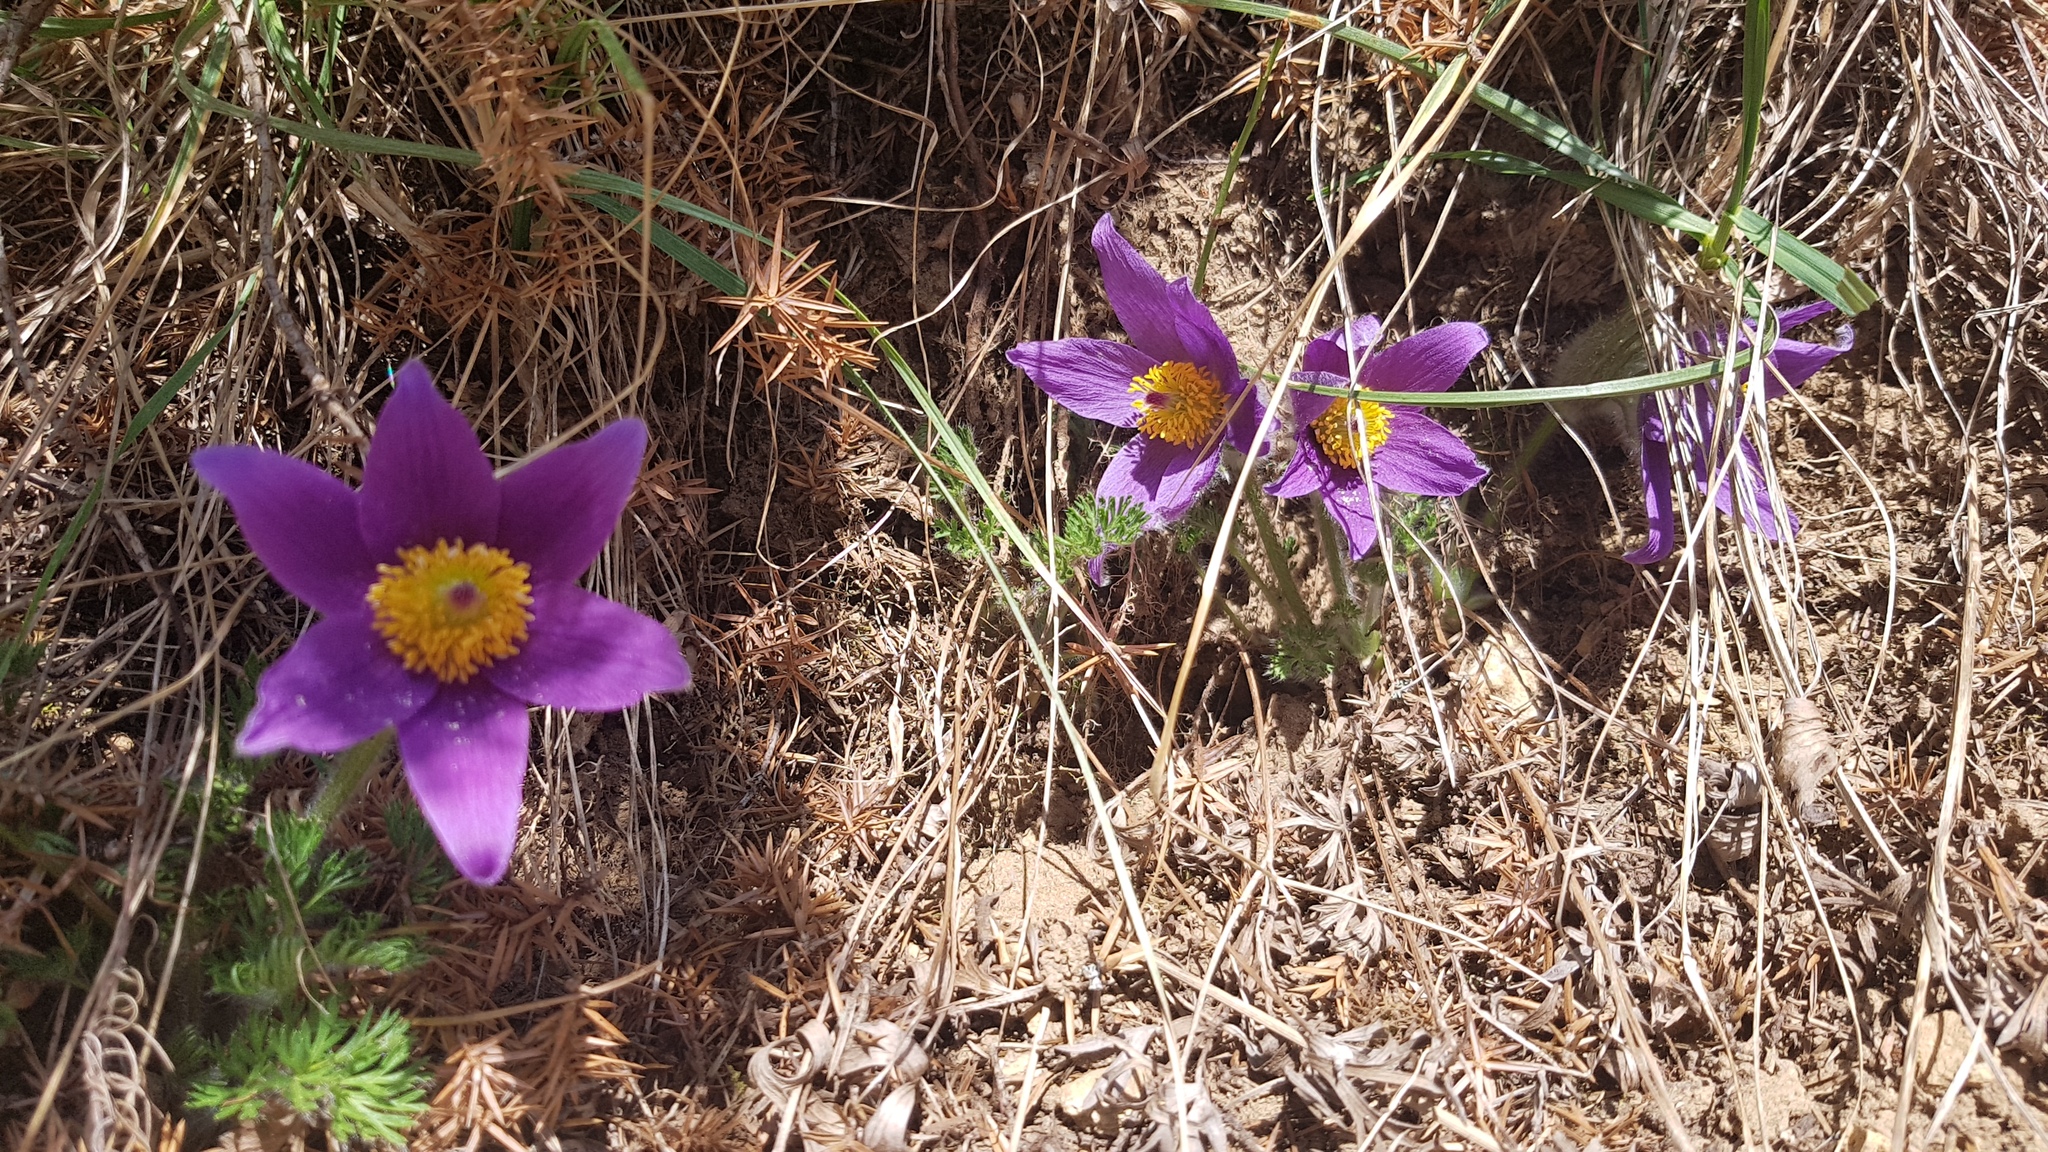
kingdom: Plantae
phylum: Tracheophyta
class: Magnoliopsida
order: Ranunculales
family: Ranunculaceae
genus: Pulsatilla
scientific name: Pulsatilla vulgaris
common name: Pasqueflower
